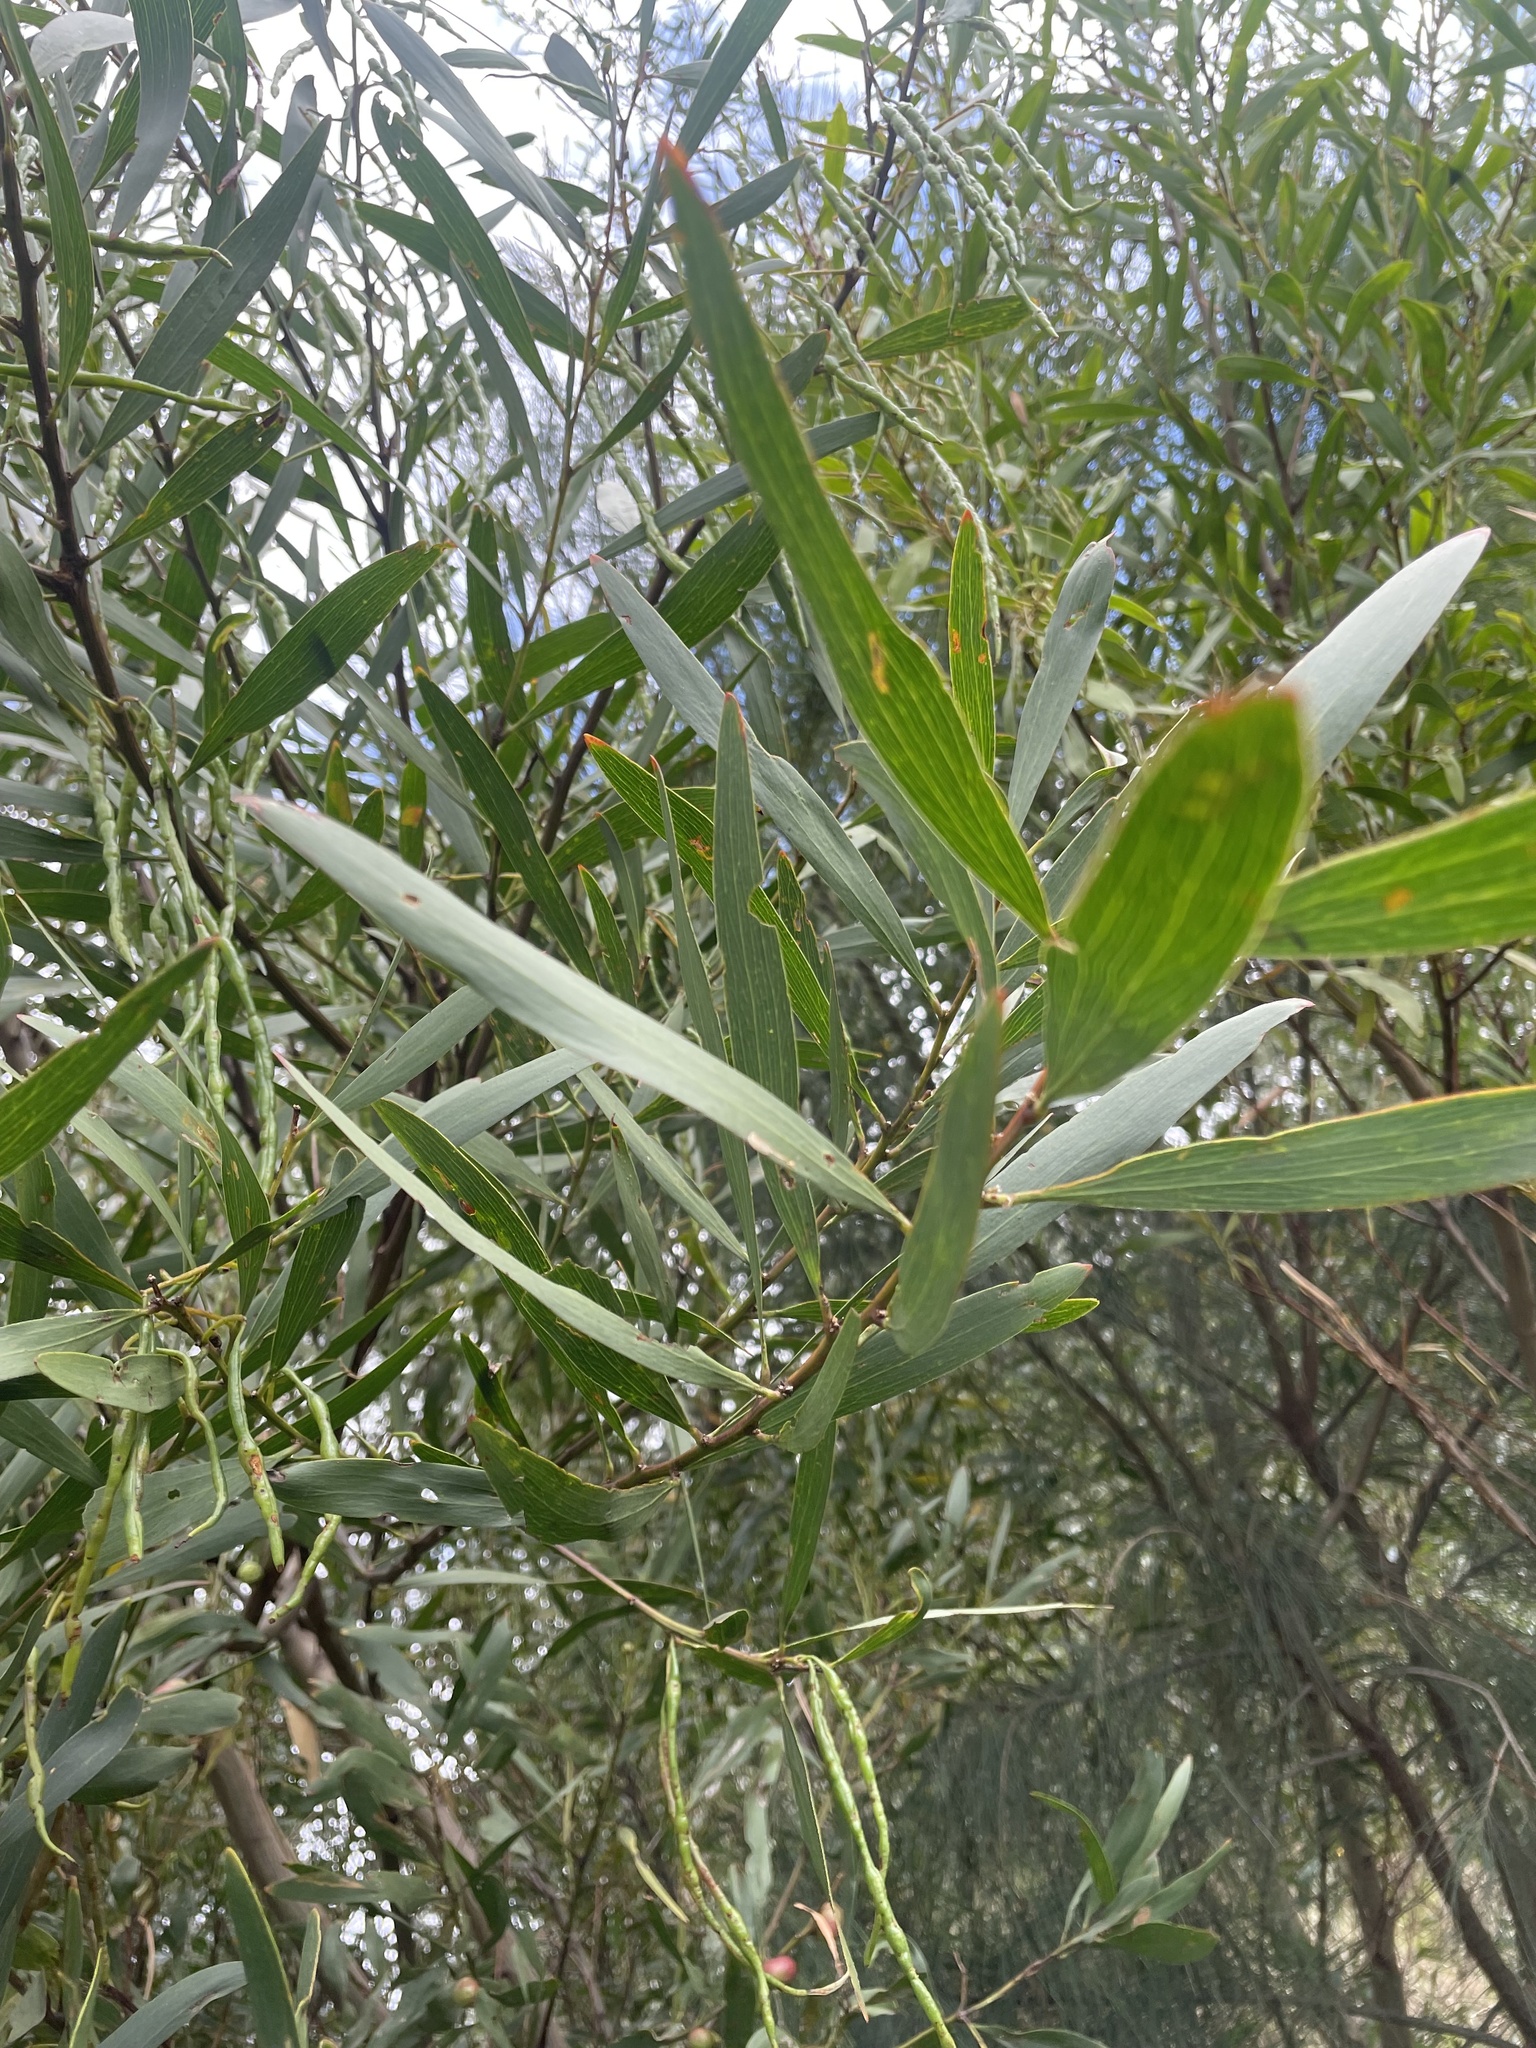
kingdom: Plantae
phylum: Tracheophyta
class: Magnoliopsida
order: Fabales
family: Fabaceae
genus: Acacia
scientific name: Acacia longifolia
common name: Sydney golden wattle
